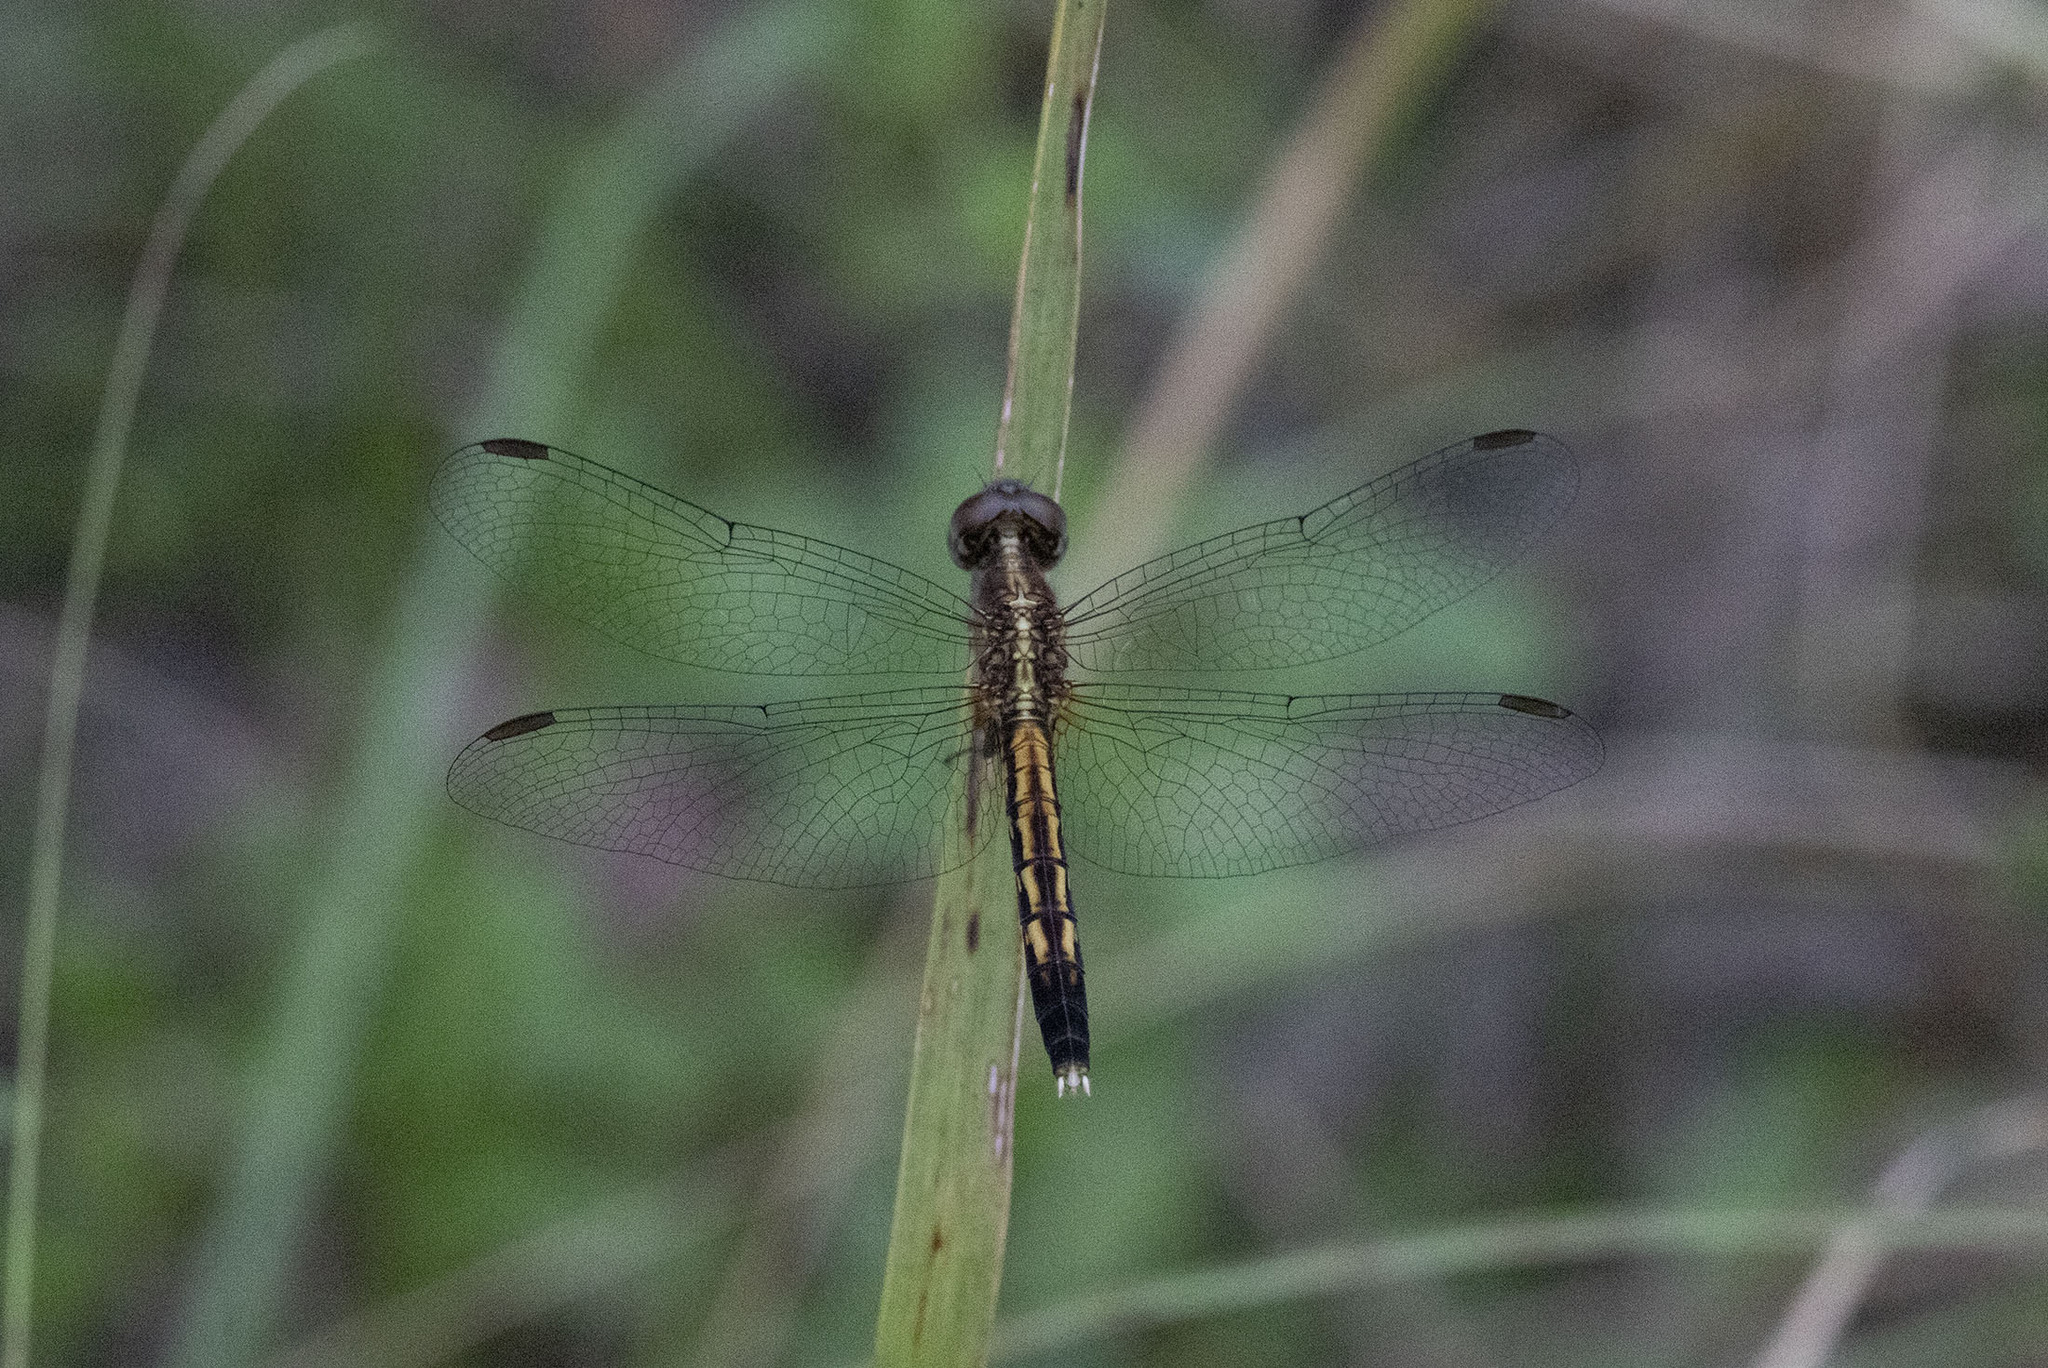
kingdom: Animalia
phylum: Arthropoda
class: Insecta
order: Odonata
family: Libellulidae
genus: Erythrodiplax
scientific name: Erythrodiplax minuscula
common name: Little blue dragonlet
